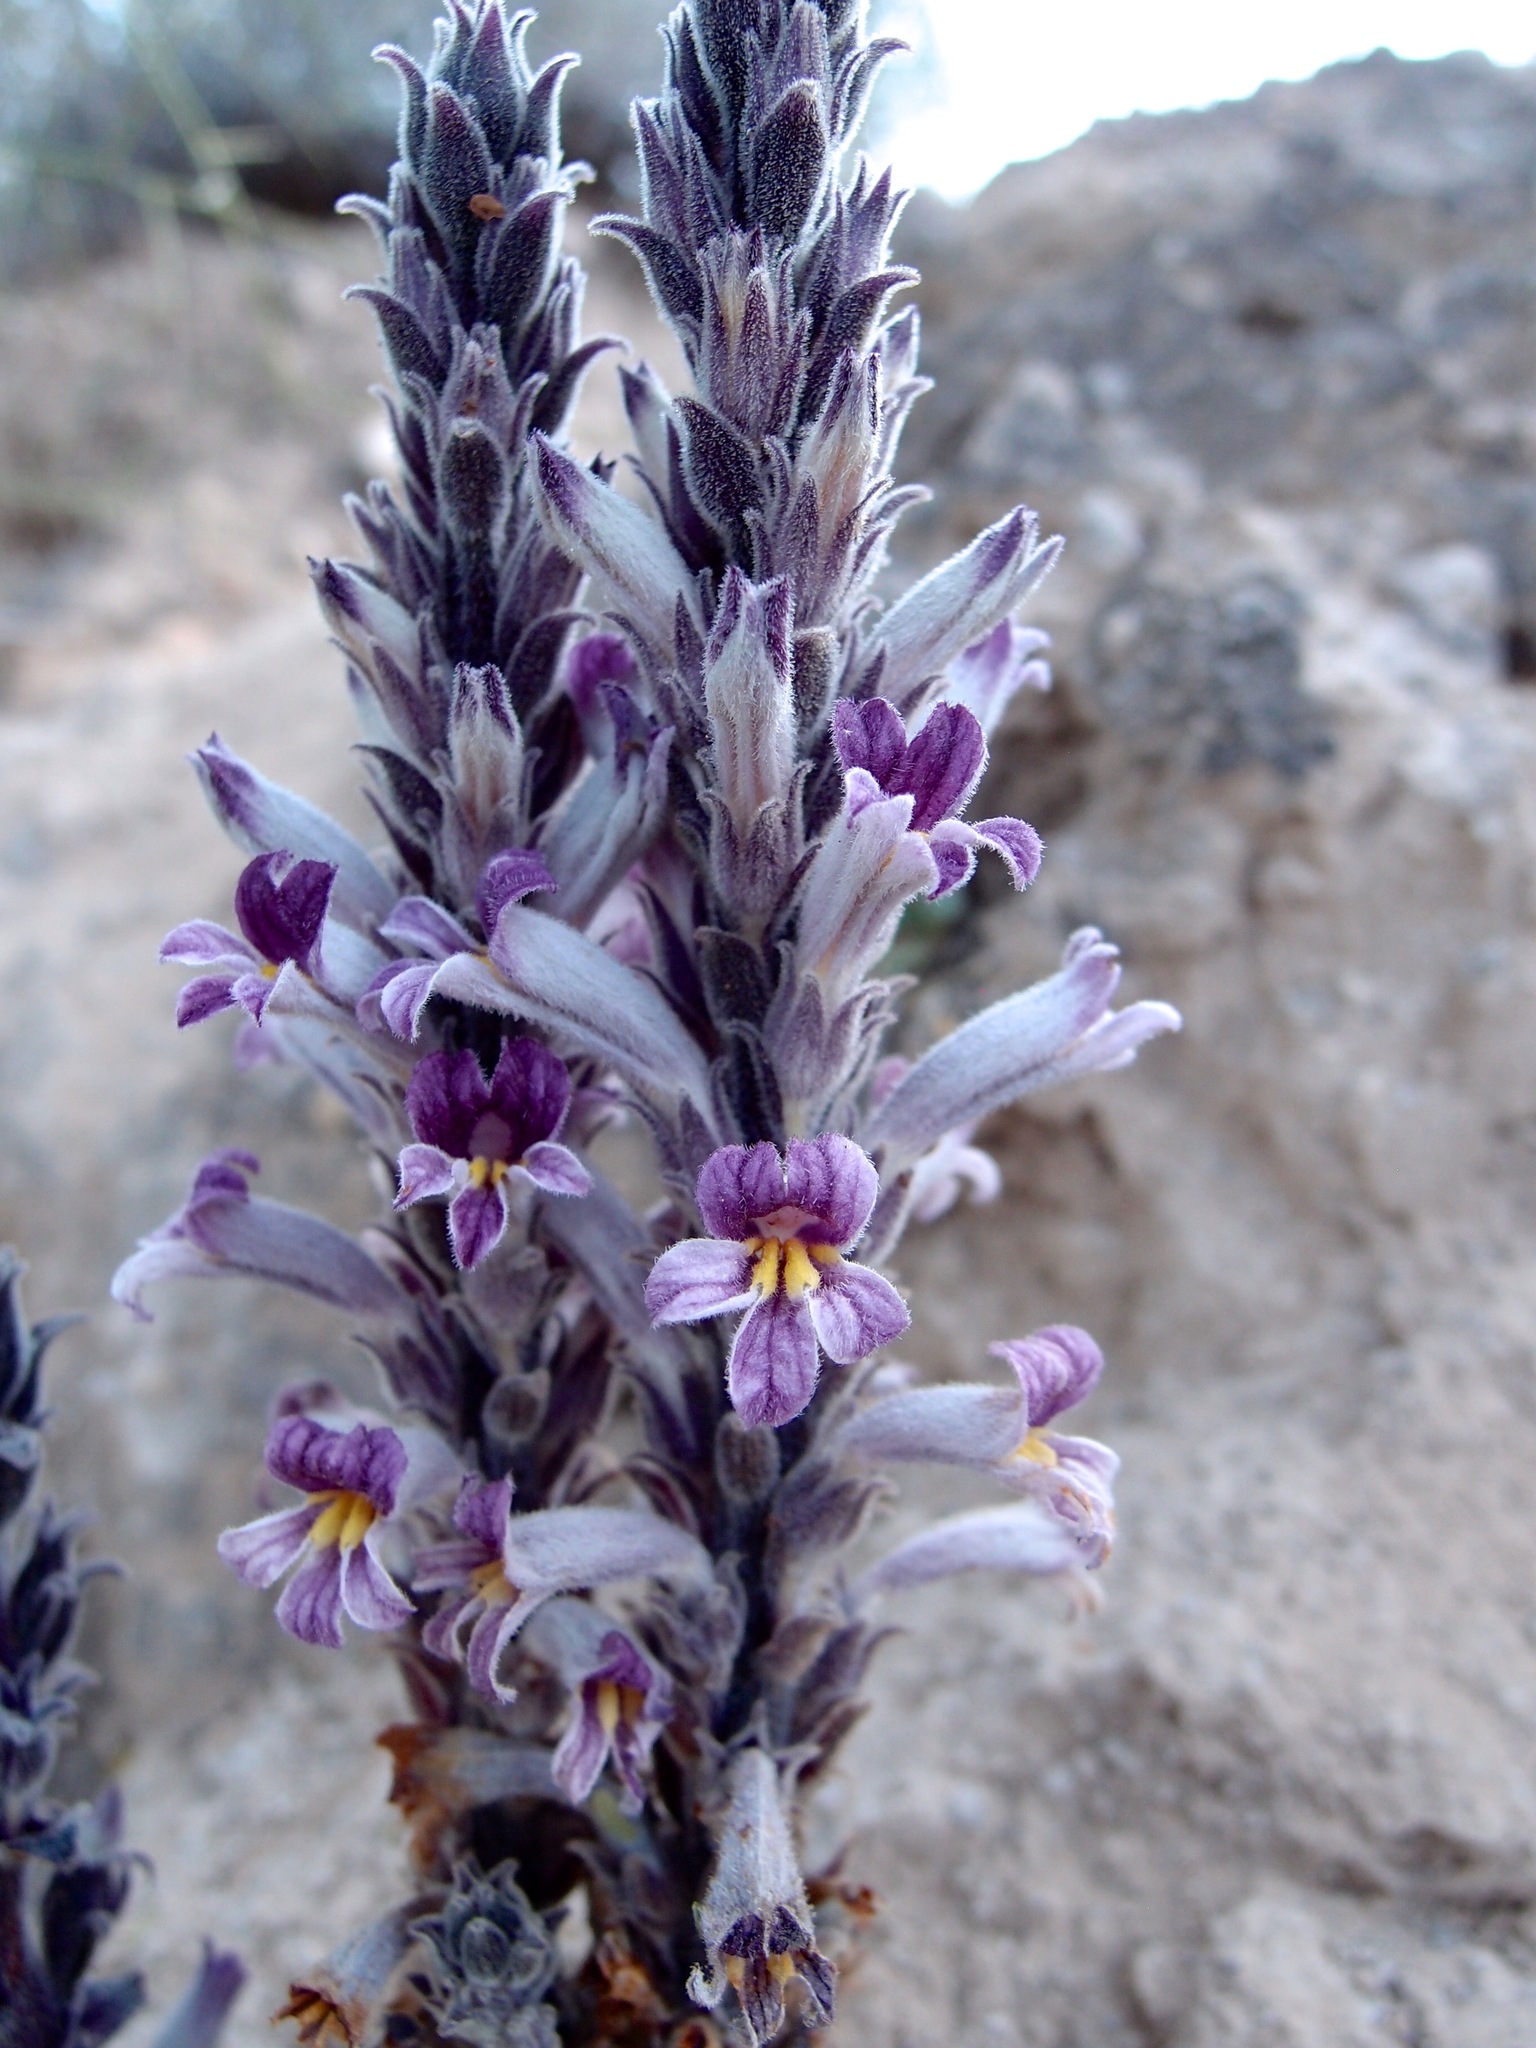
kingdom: Plantae
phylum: Tracheophyta
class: Magnoliopsida
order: Lamiales
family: Orobanchaceae
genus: Aphyllon
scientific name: Aphyllon cooperi
